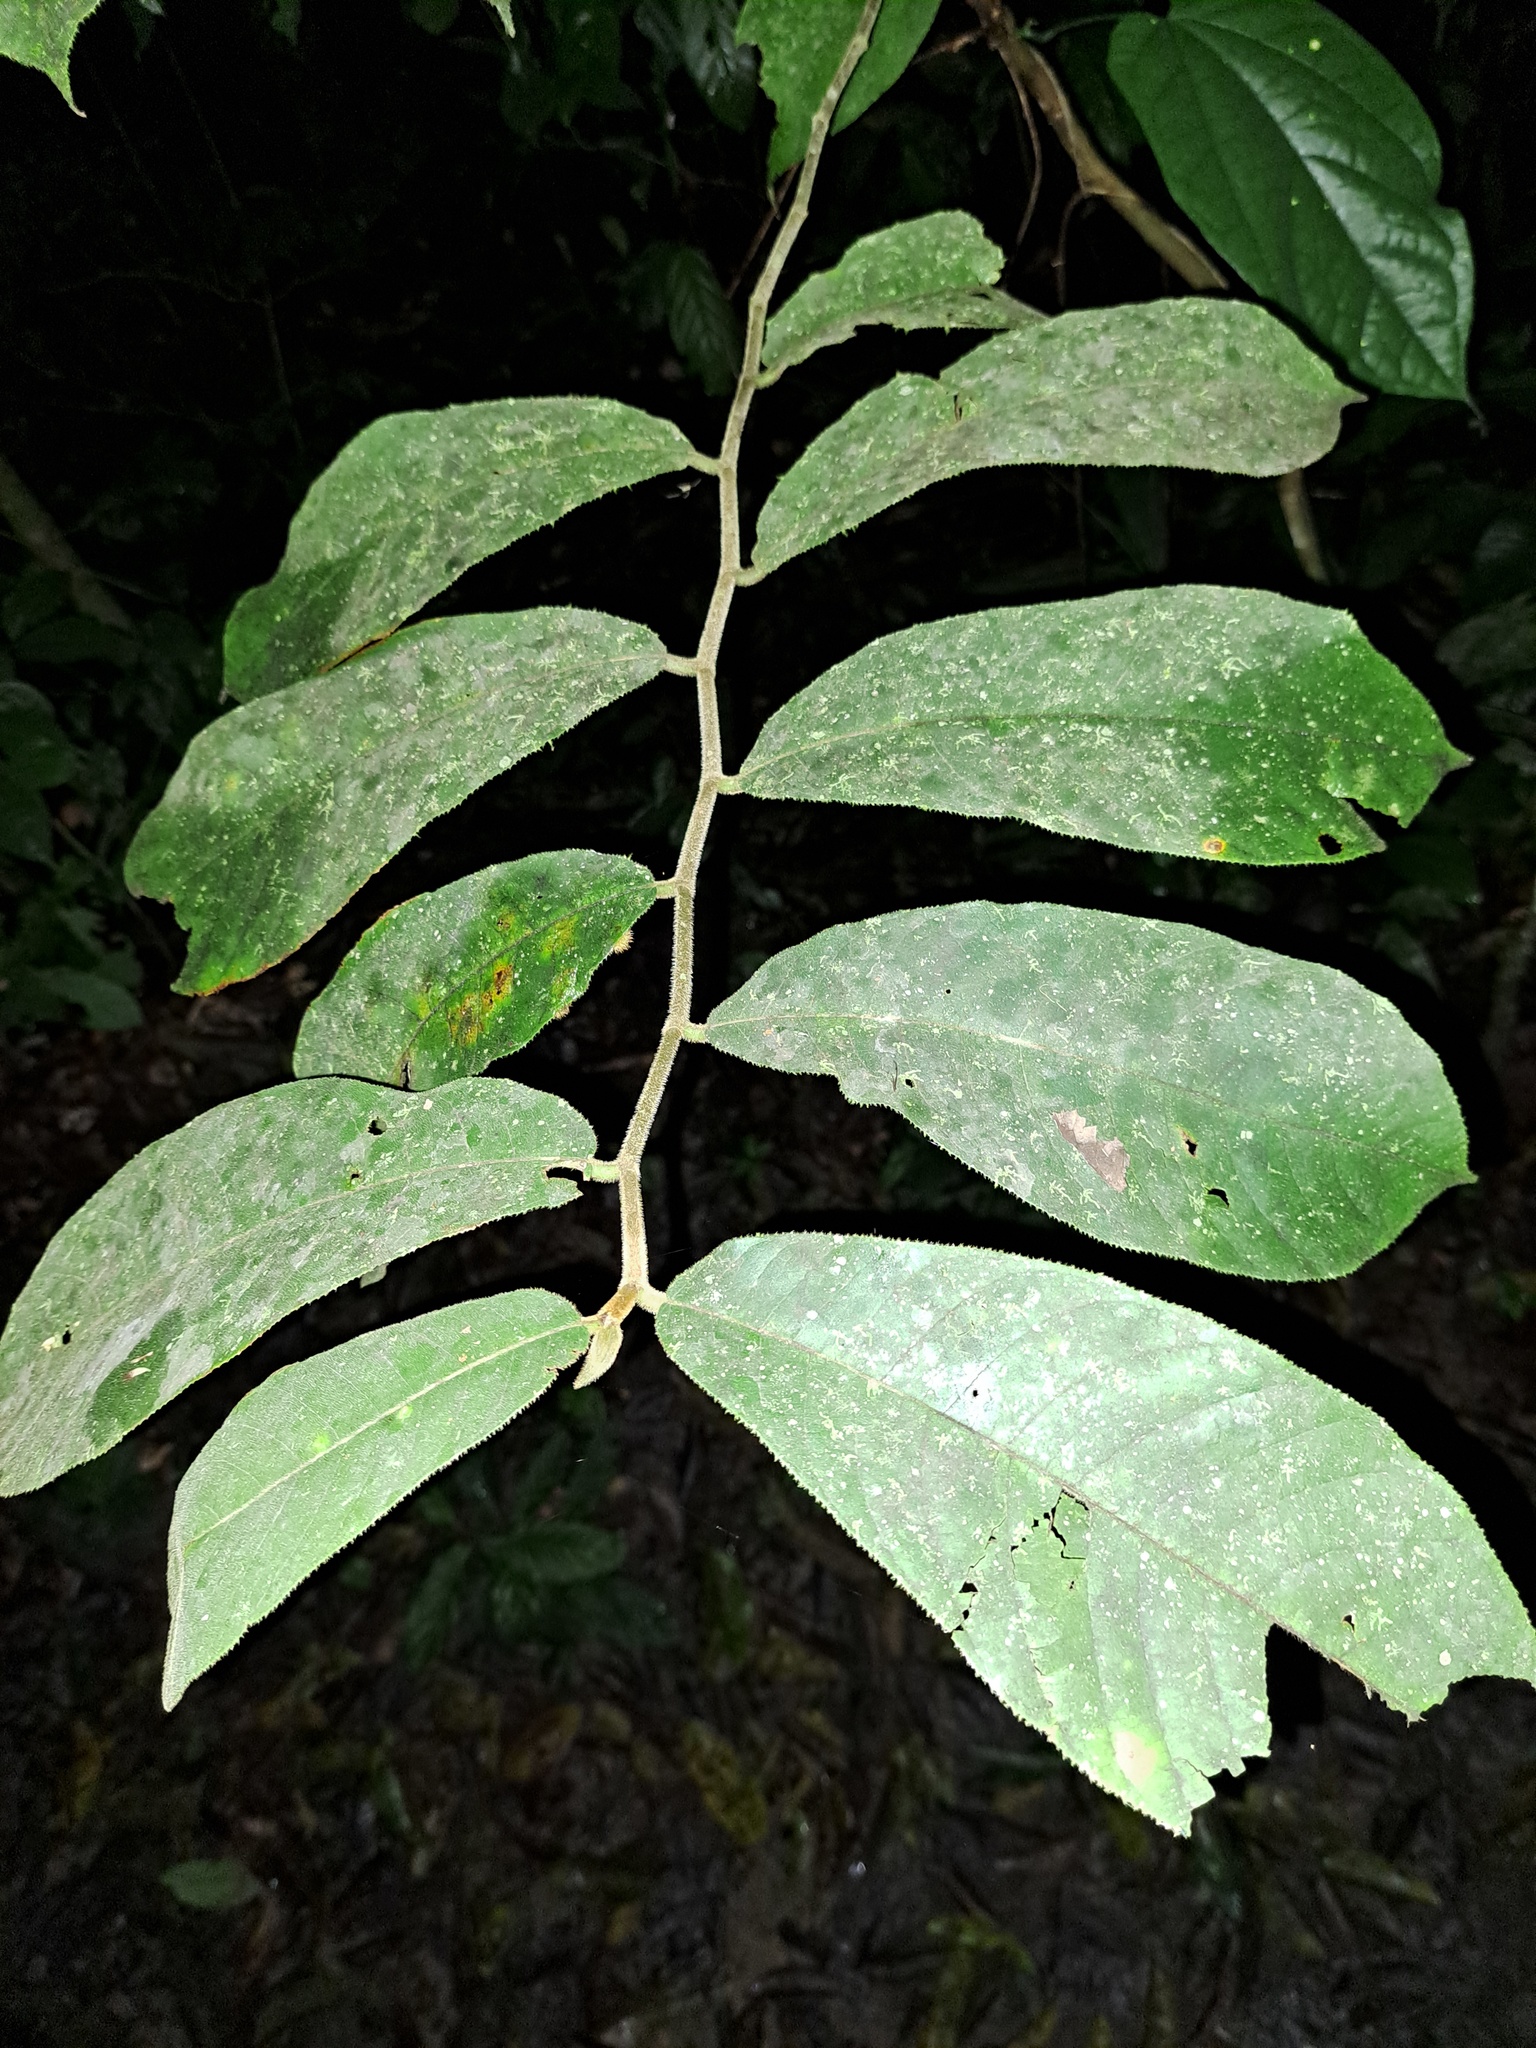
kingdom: Plantae
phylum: Tracheophyta
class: Magnoliopsida
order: Rosales
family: Moraceae
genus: Castilla
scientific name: Castilla ulei
